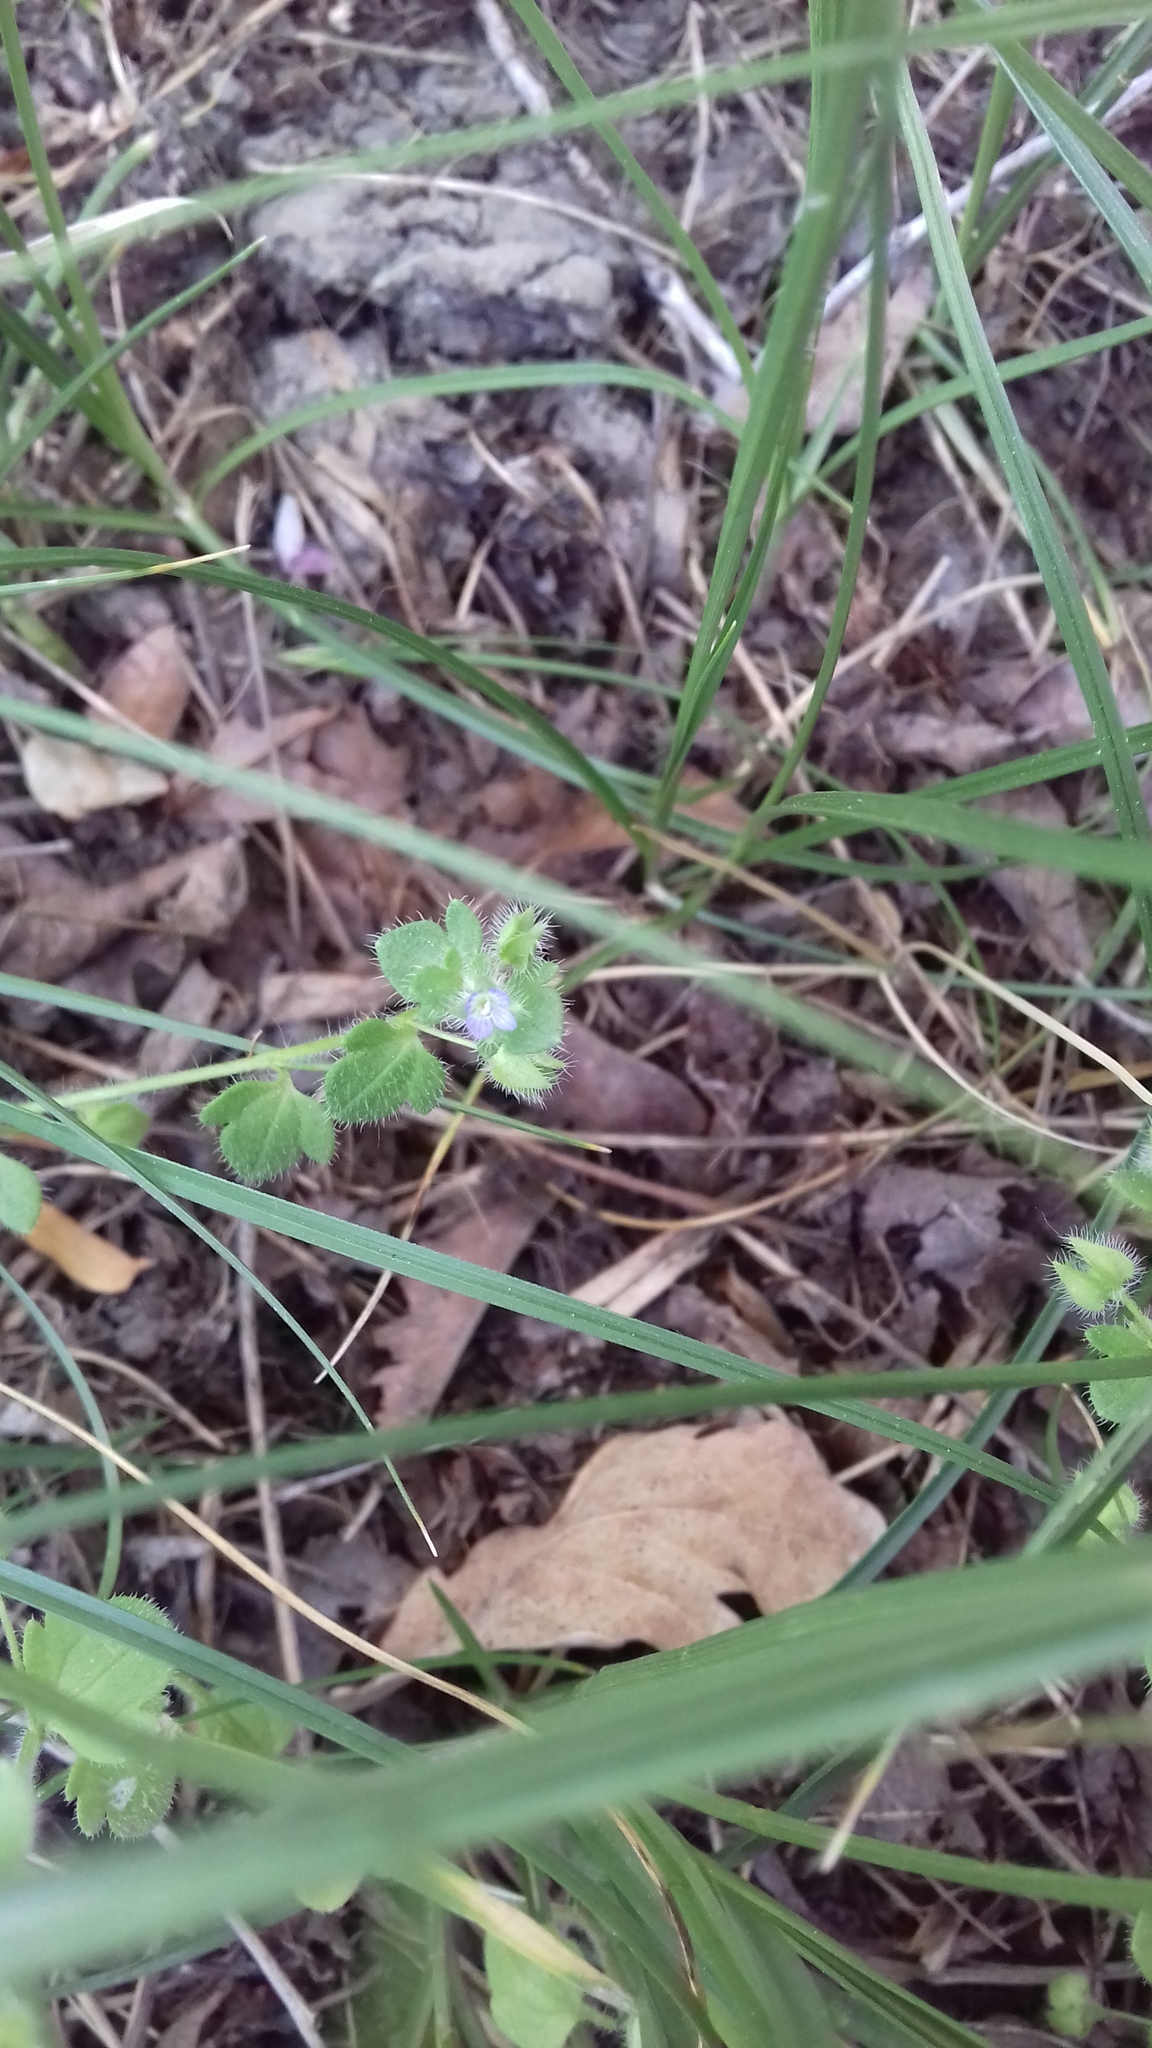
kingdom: Plantae
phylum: Tracheophyta
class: Magnoliopsida
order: Lamiales
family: Plantaginaceae
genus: Veronica
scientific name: Veronica hederifolia
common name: Ivy-leaved speedwell
